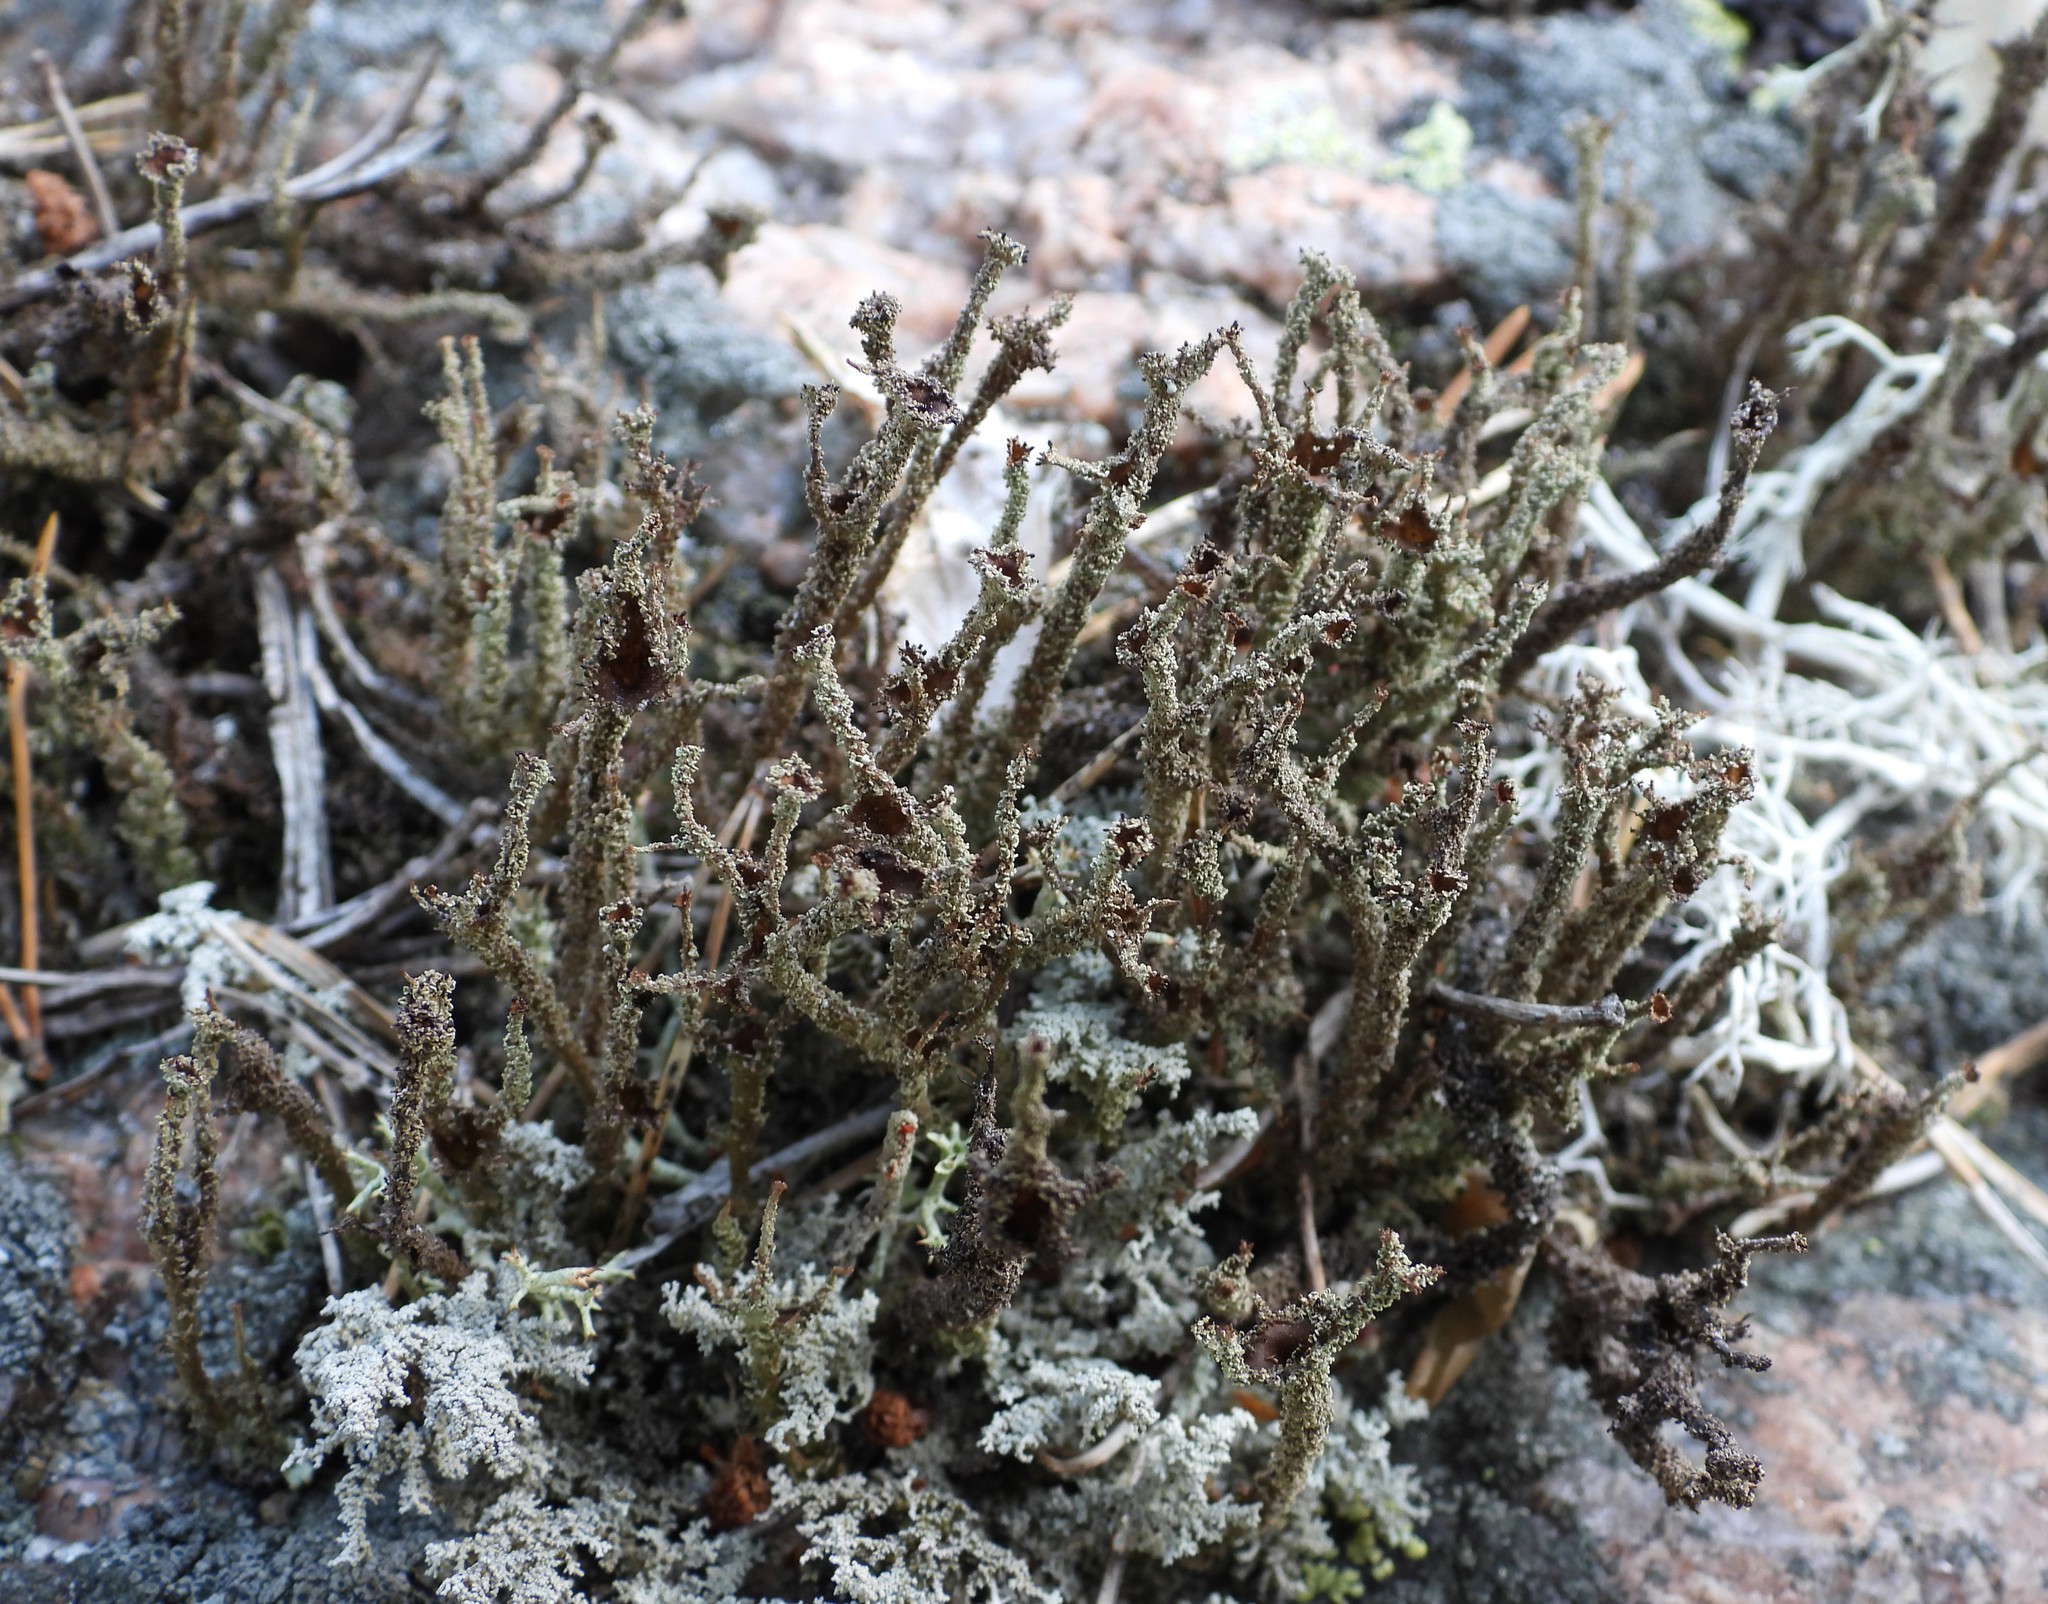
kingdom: Fungi
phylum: Ascomycota
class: Lecanoromycetes
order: Lecanorales
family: Cladoniaceae
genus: Cladonia
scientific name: Cladonia squamosa
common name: Dragon horn
